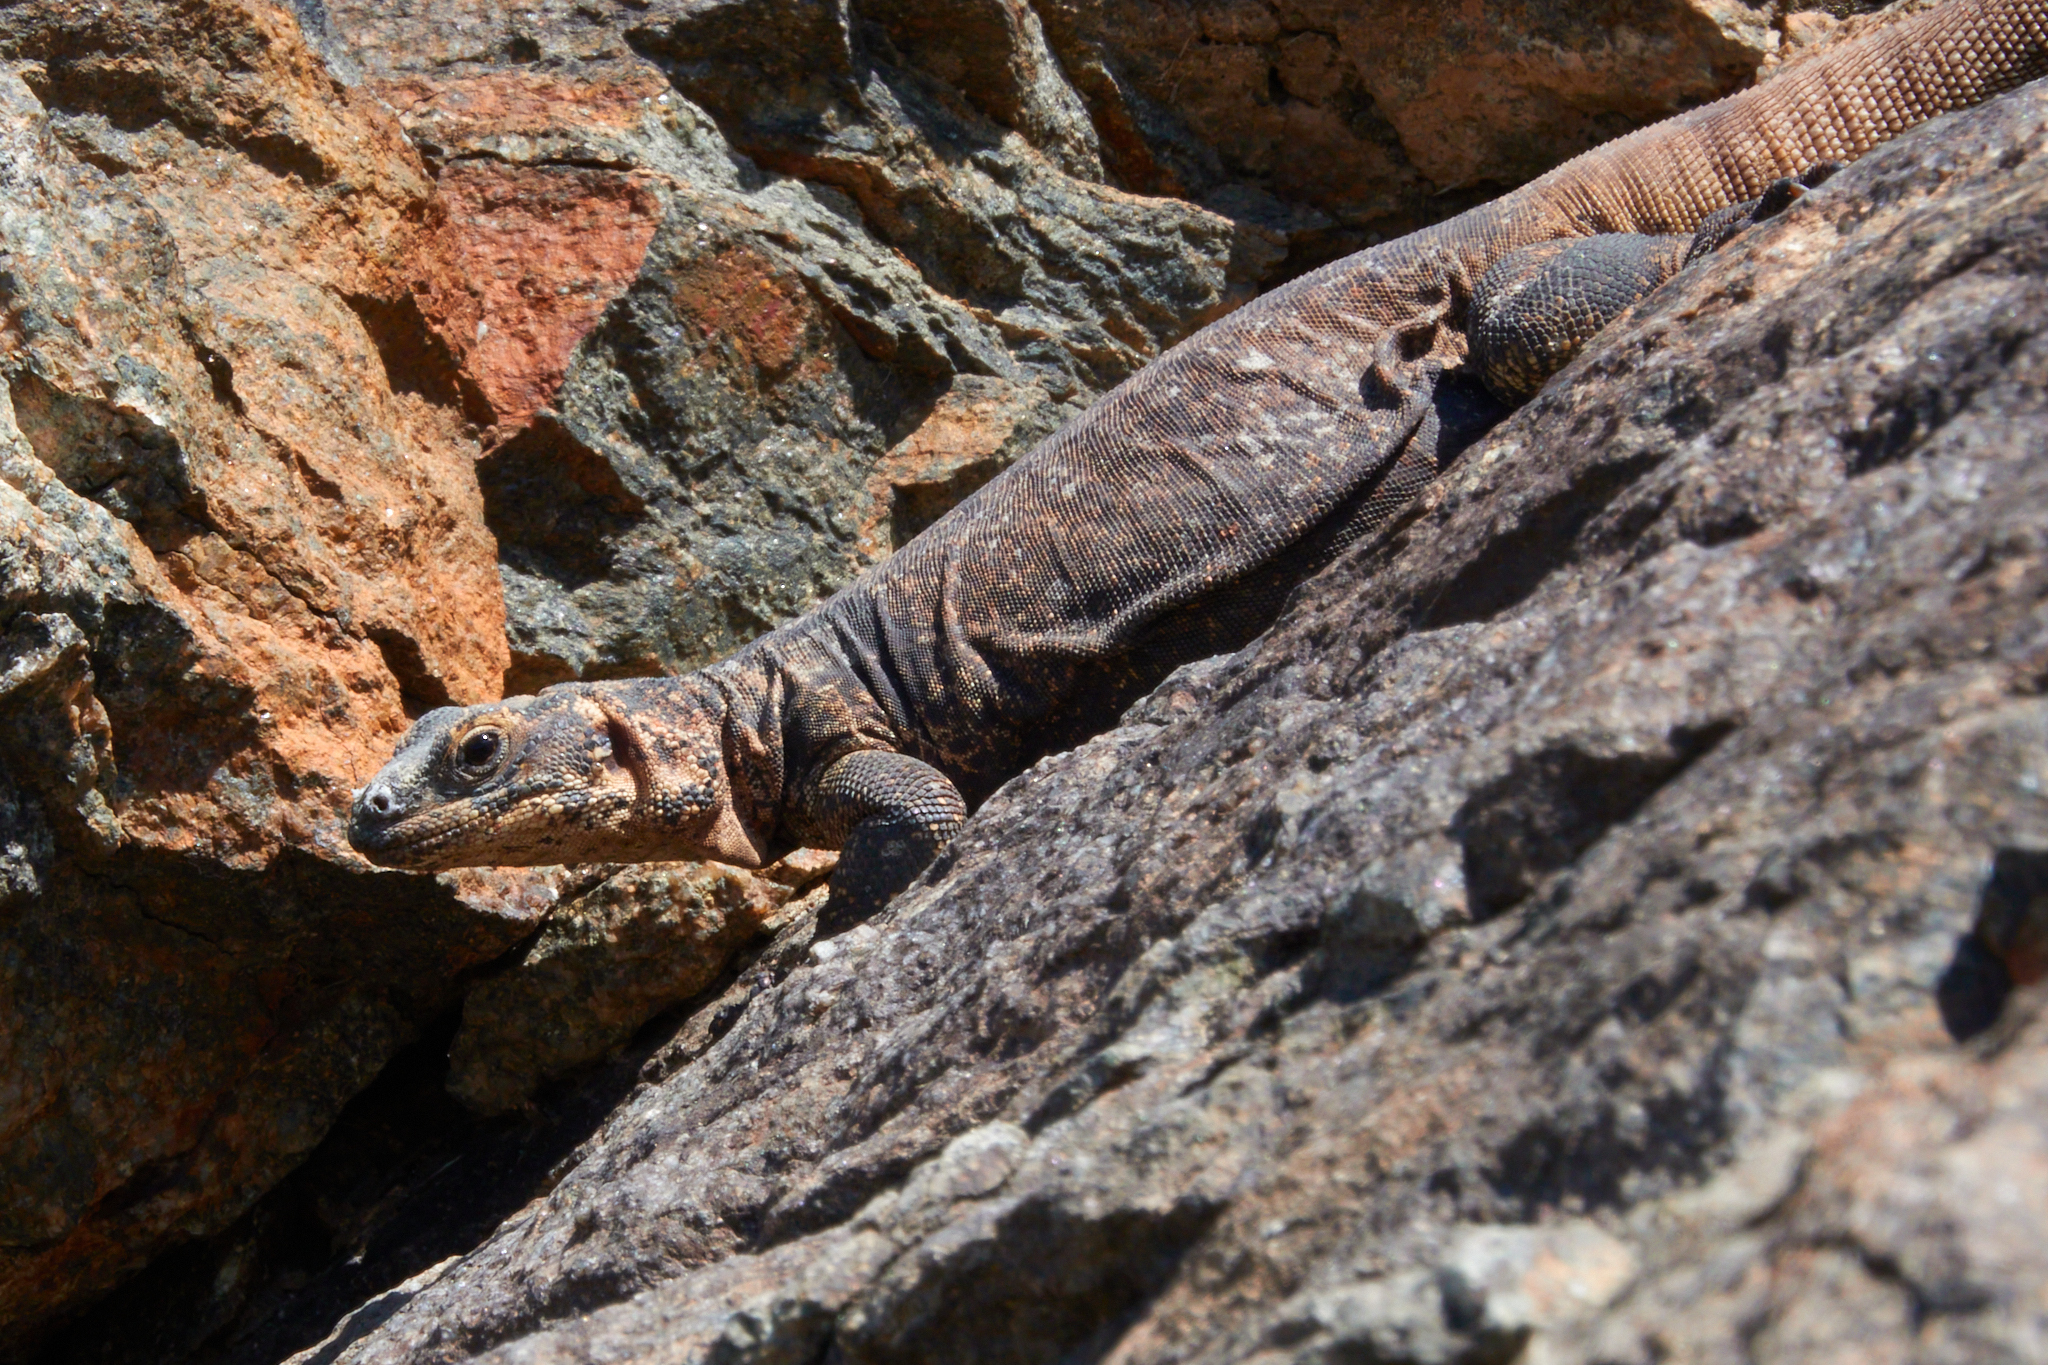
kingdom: Animalia
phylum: Chordata
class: Squamata
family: Iguanidae
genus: Sauromalus
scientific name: Sauromalus ater
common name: Northern chuckwalla
